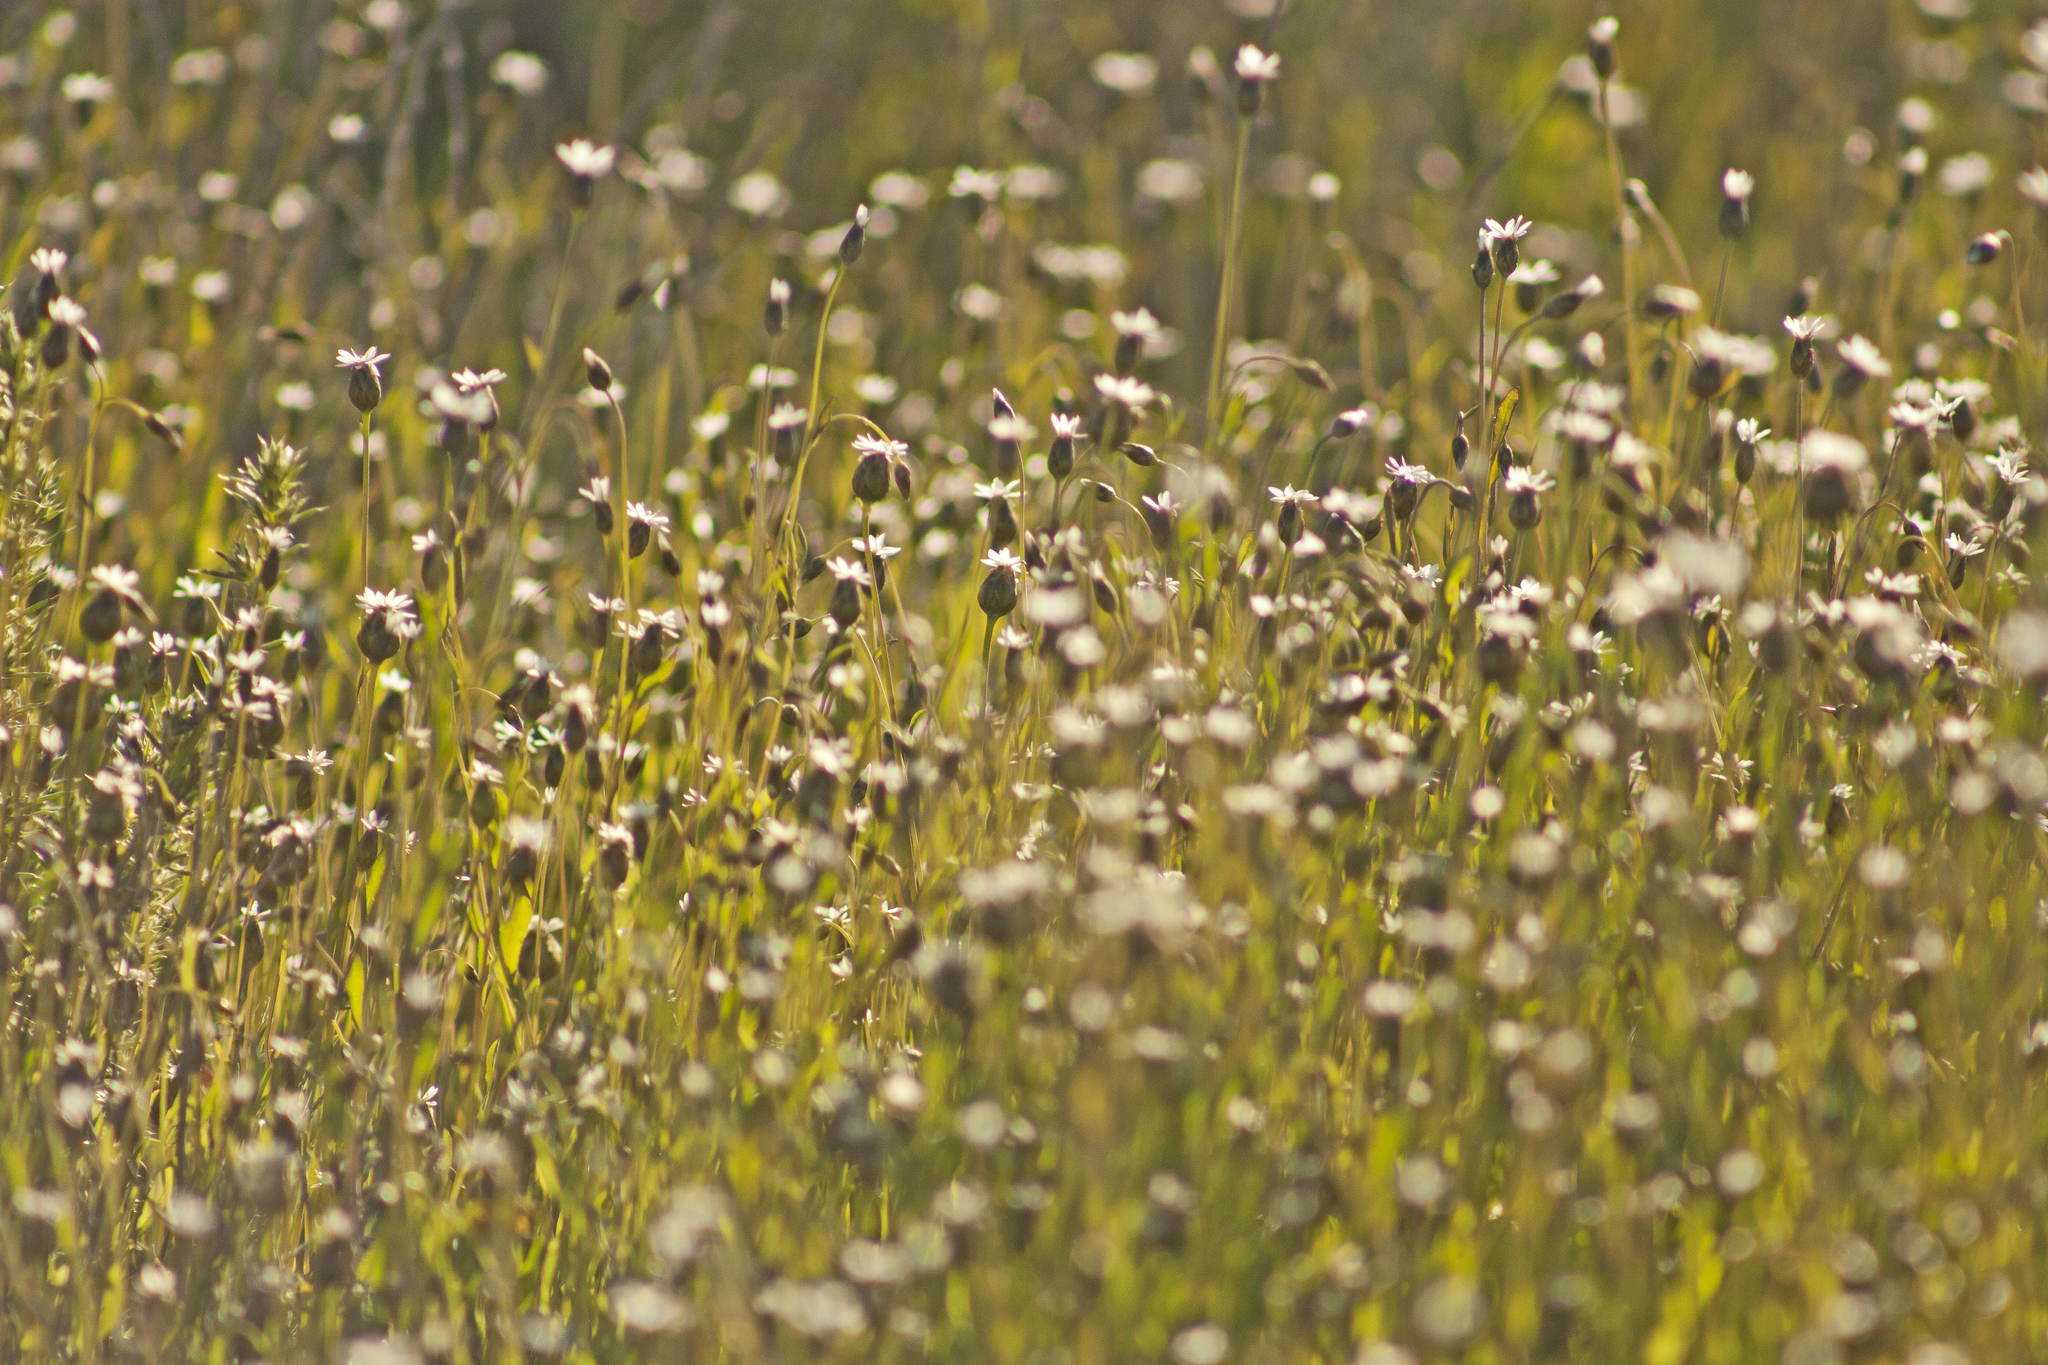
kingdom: Plantae
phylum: Tracheophyta
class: Magnoliopsida
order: Asterales
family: Asteraceae
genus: Rhodanthe
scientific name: Rhodanthe stricta
